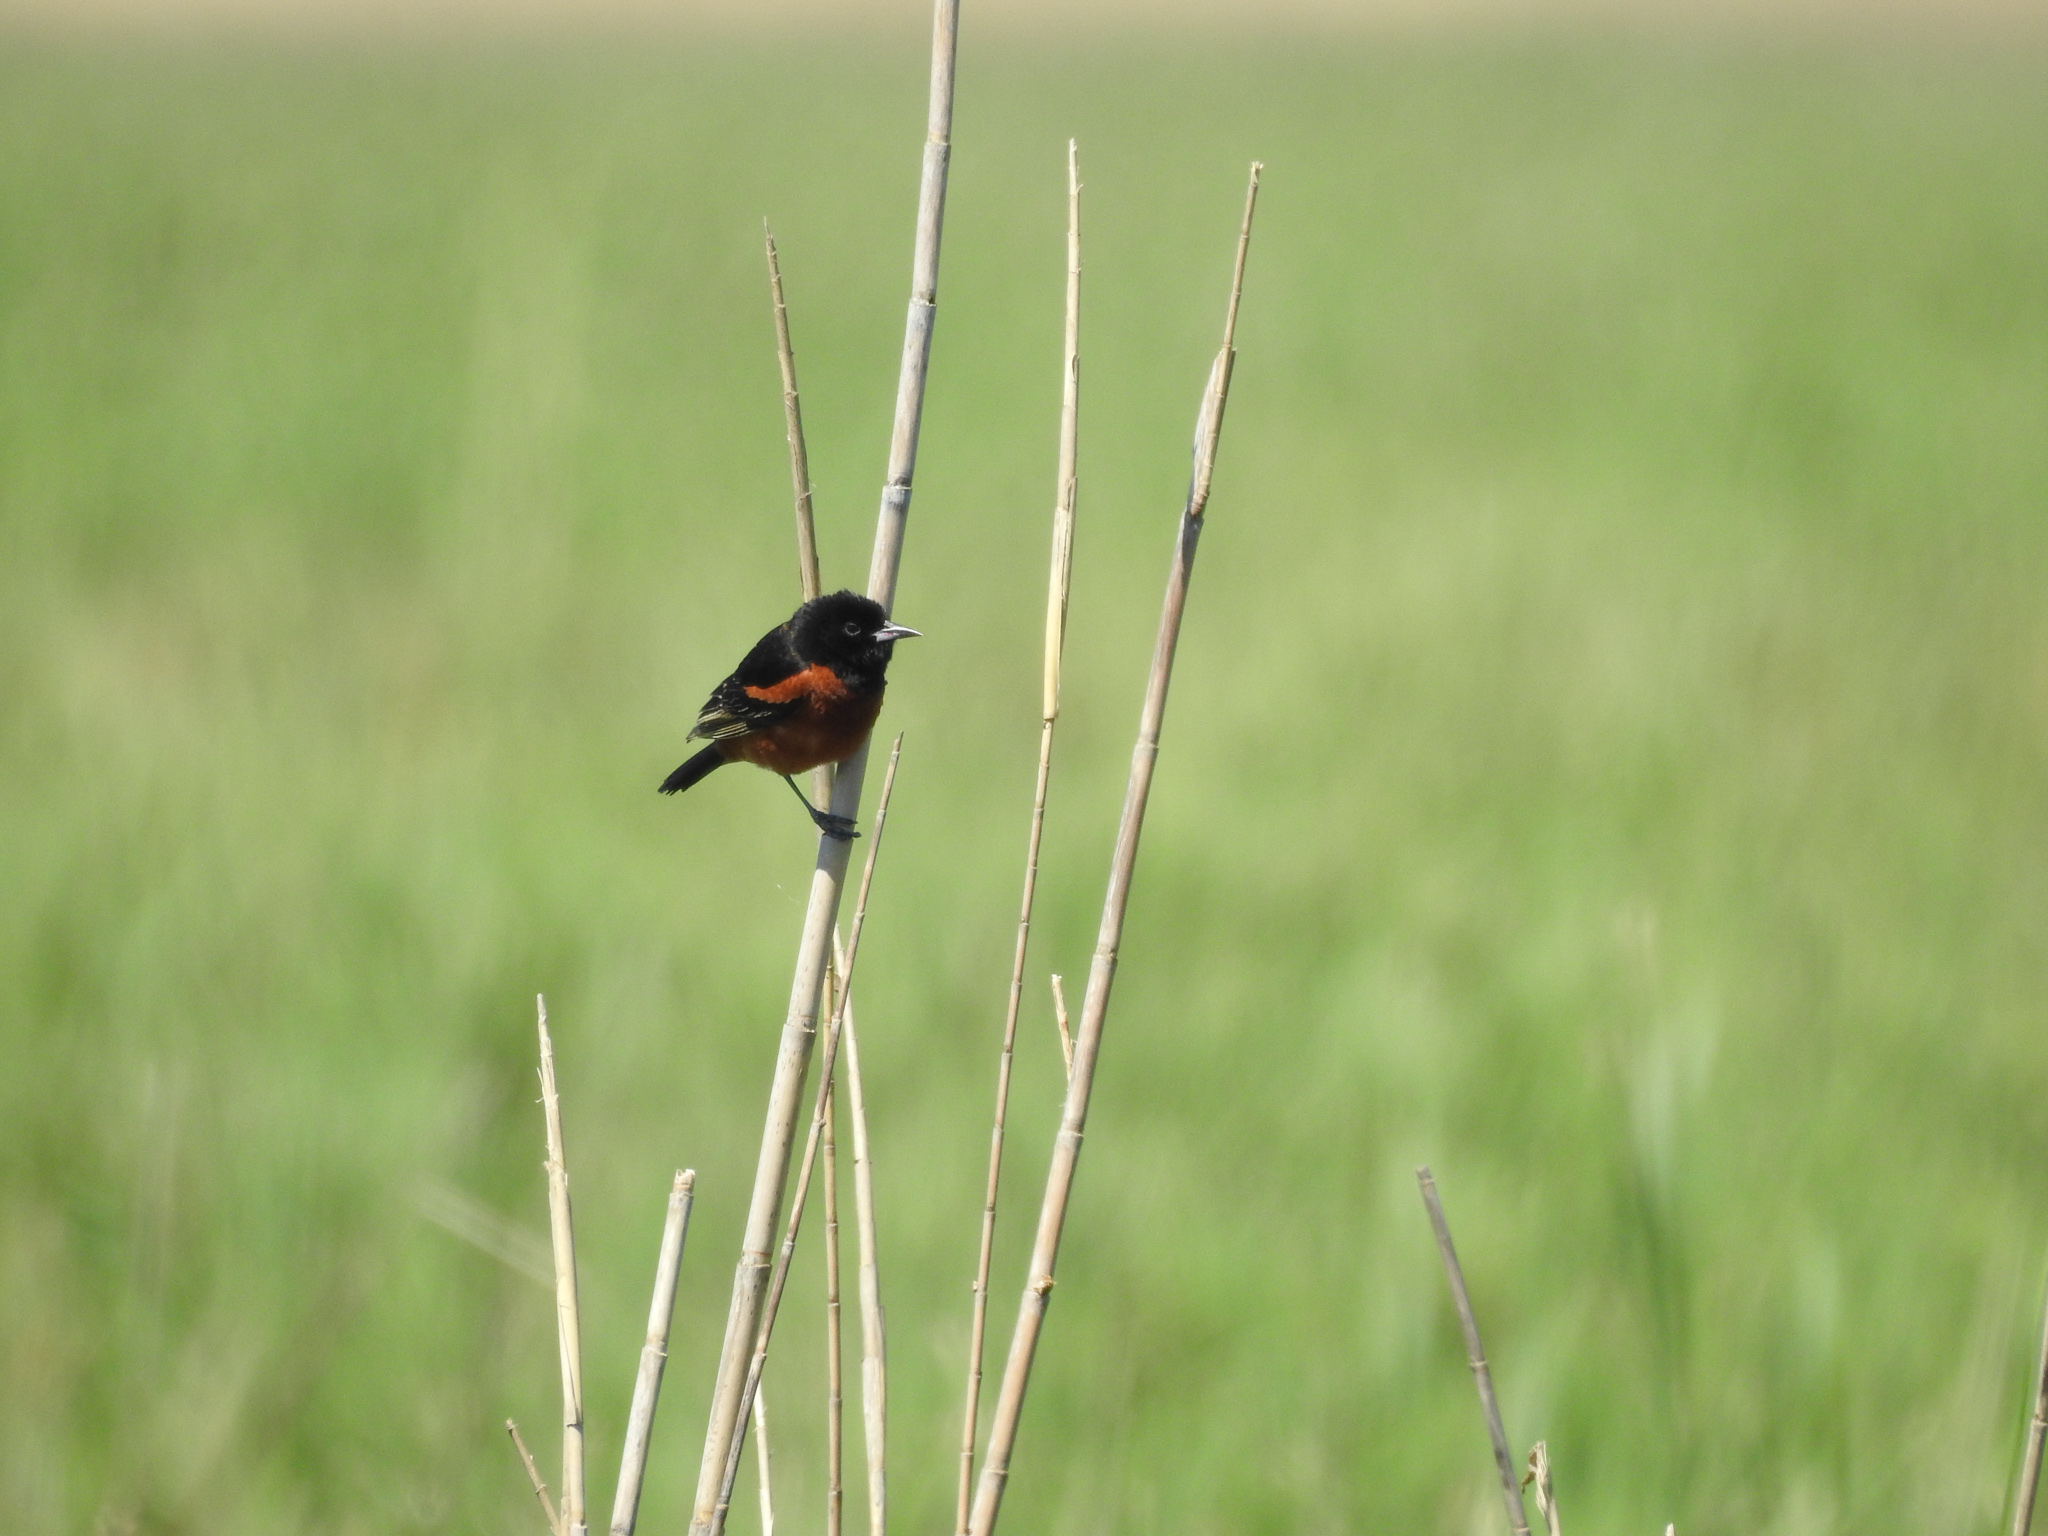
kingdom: Animalia
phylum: Chordata
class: Aves
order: Passeriformes
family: Icteridae
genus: Icterus
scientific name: Icterus spurius
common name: Orchard oriole
